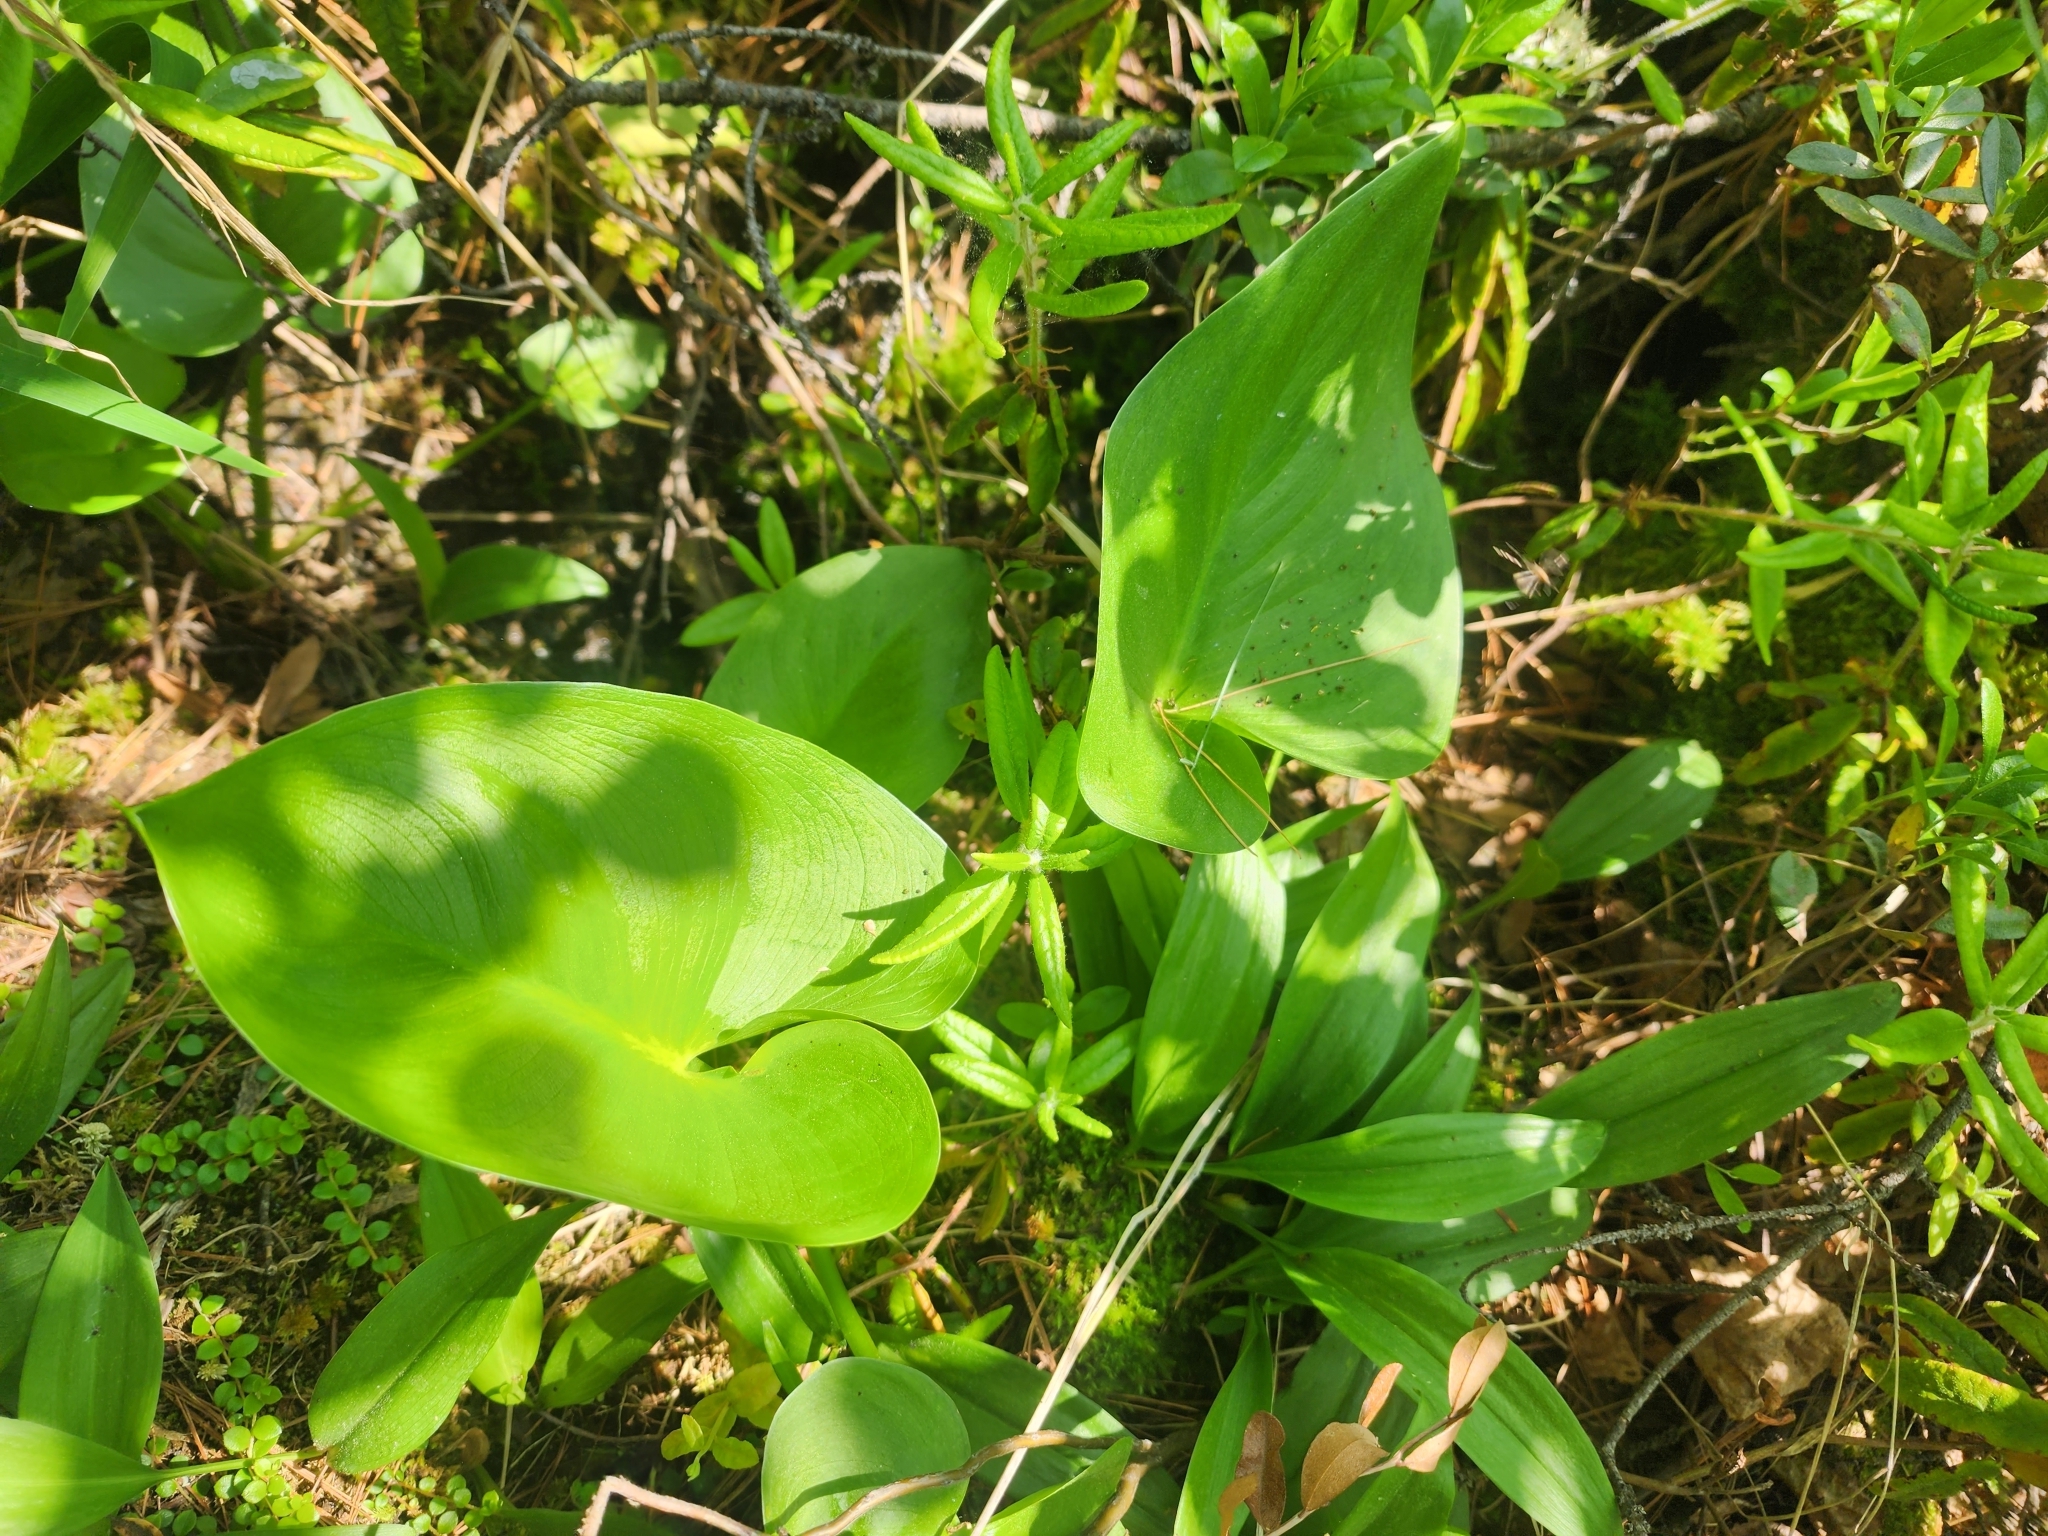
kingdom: Plantae
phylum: Tracheophyta
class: Liliopsida
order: Alismatales
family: Araceae
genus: Calla
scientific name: Calla palustris
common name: Bog arum
